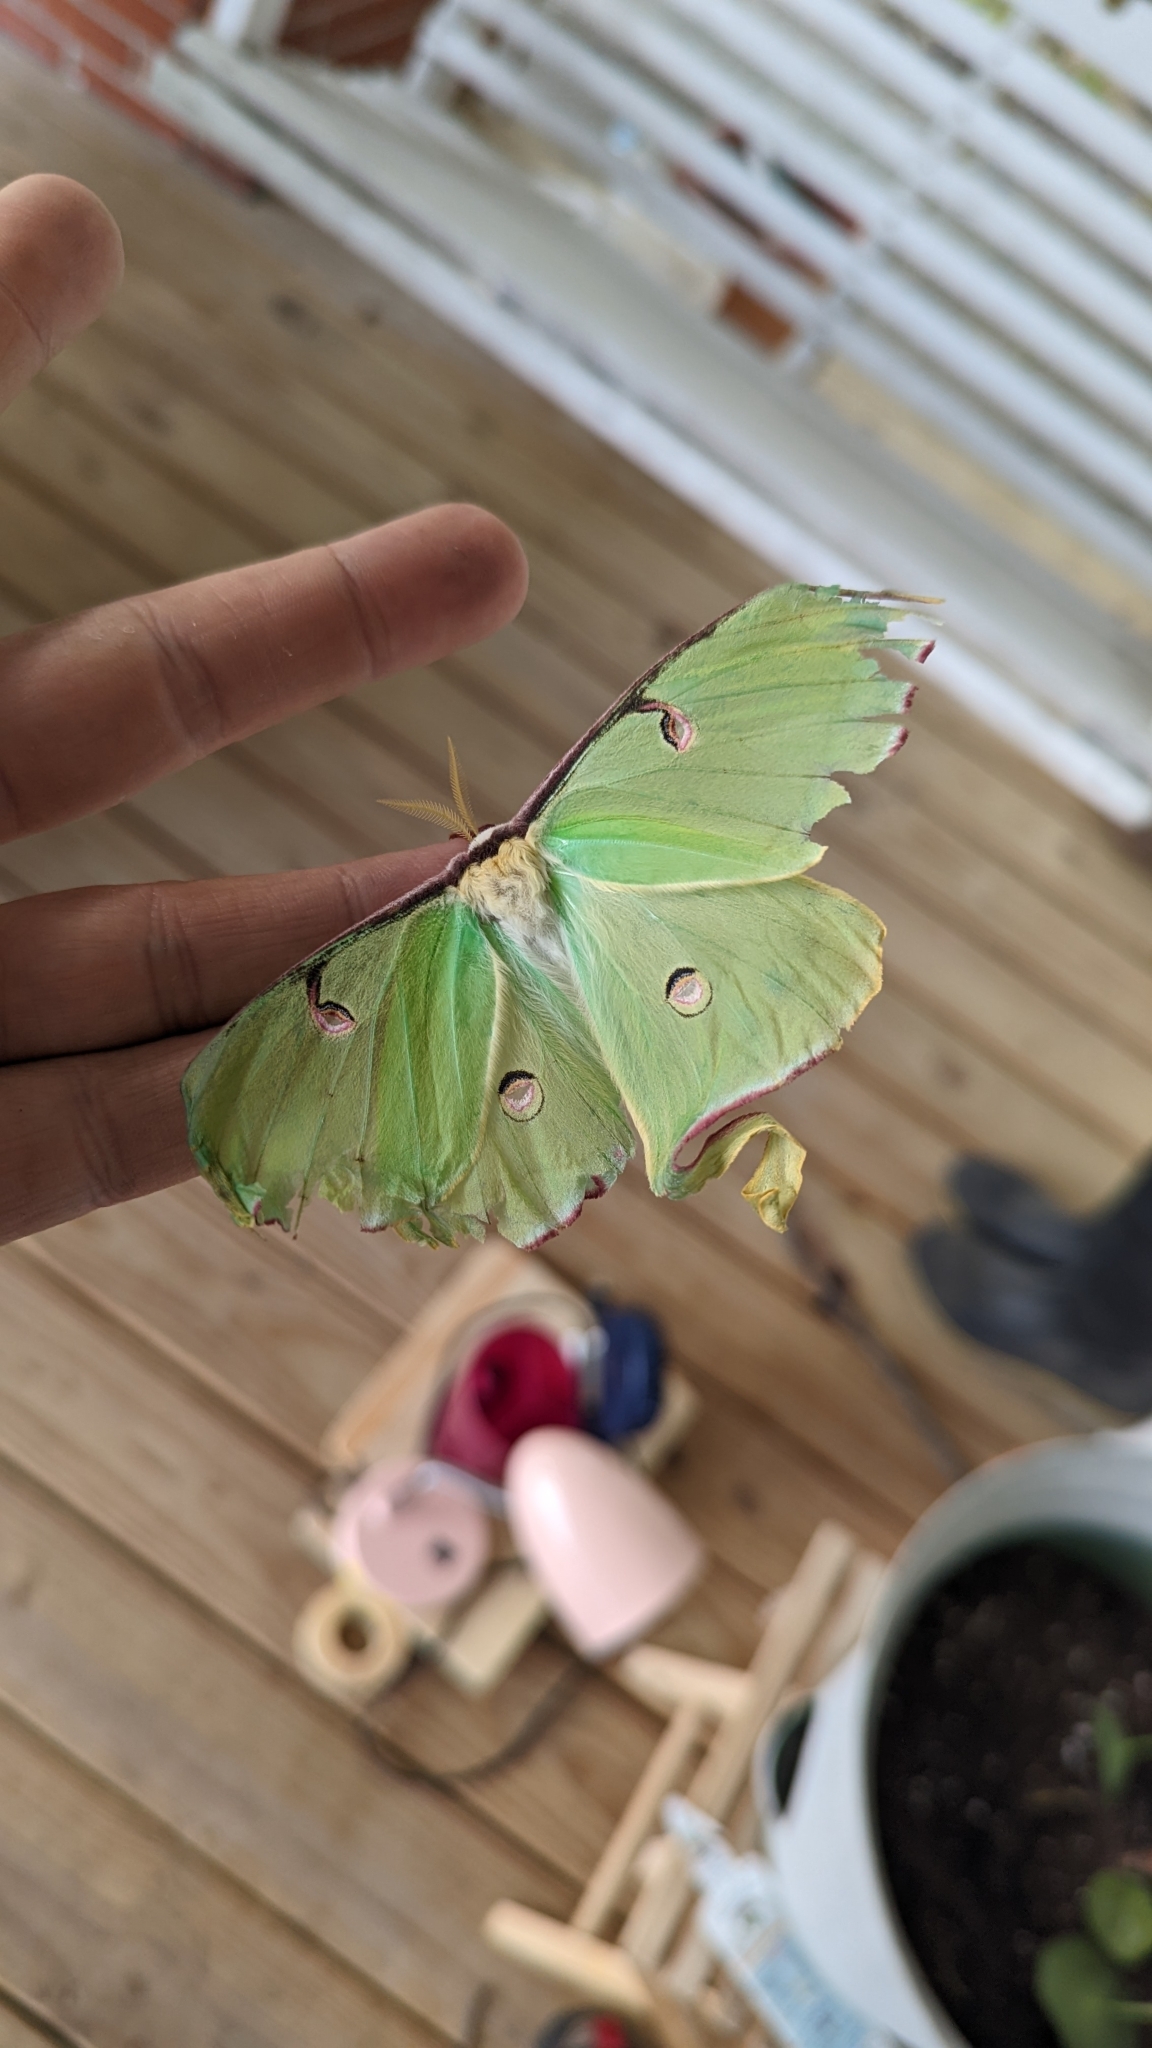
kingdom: Animalia
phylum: Arthropoda
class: Insecta
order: Lepidoptera
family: Saturniidae
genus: Actias
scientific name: Actias luna
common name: Luna moth
